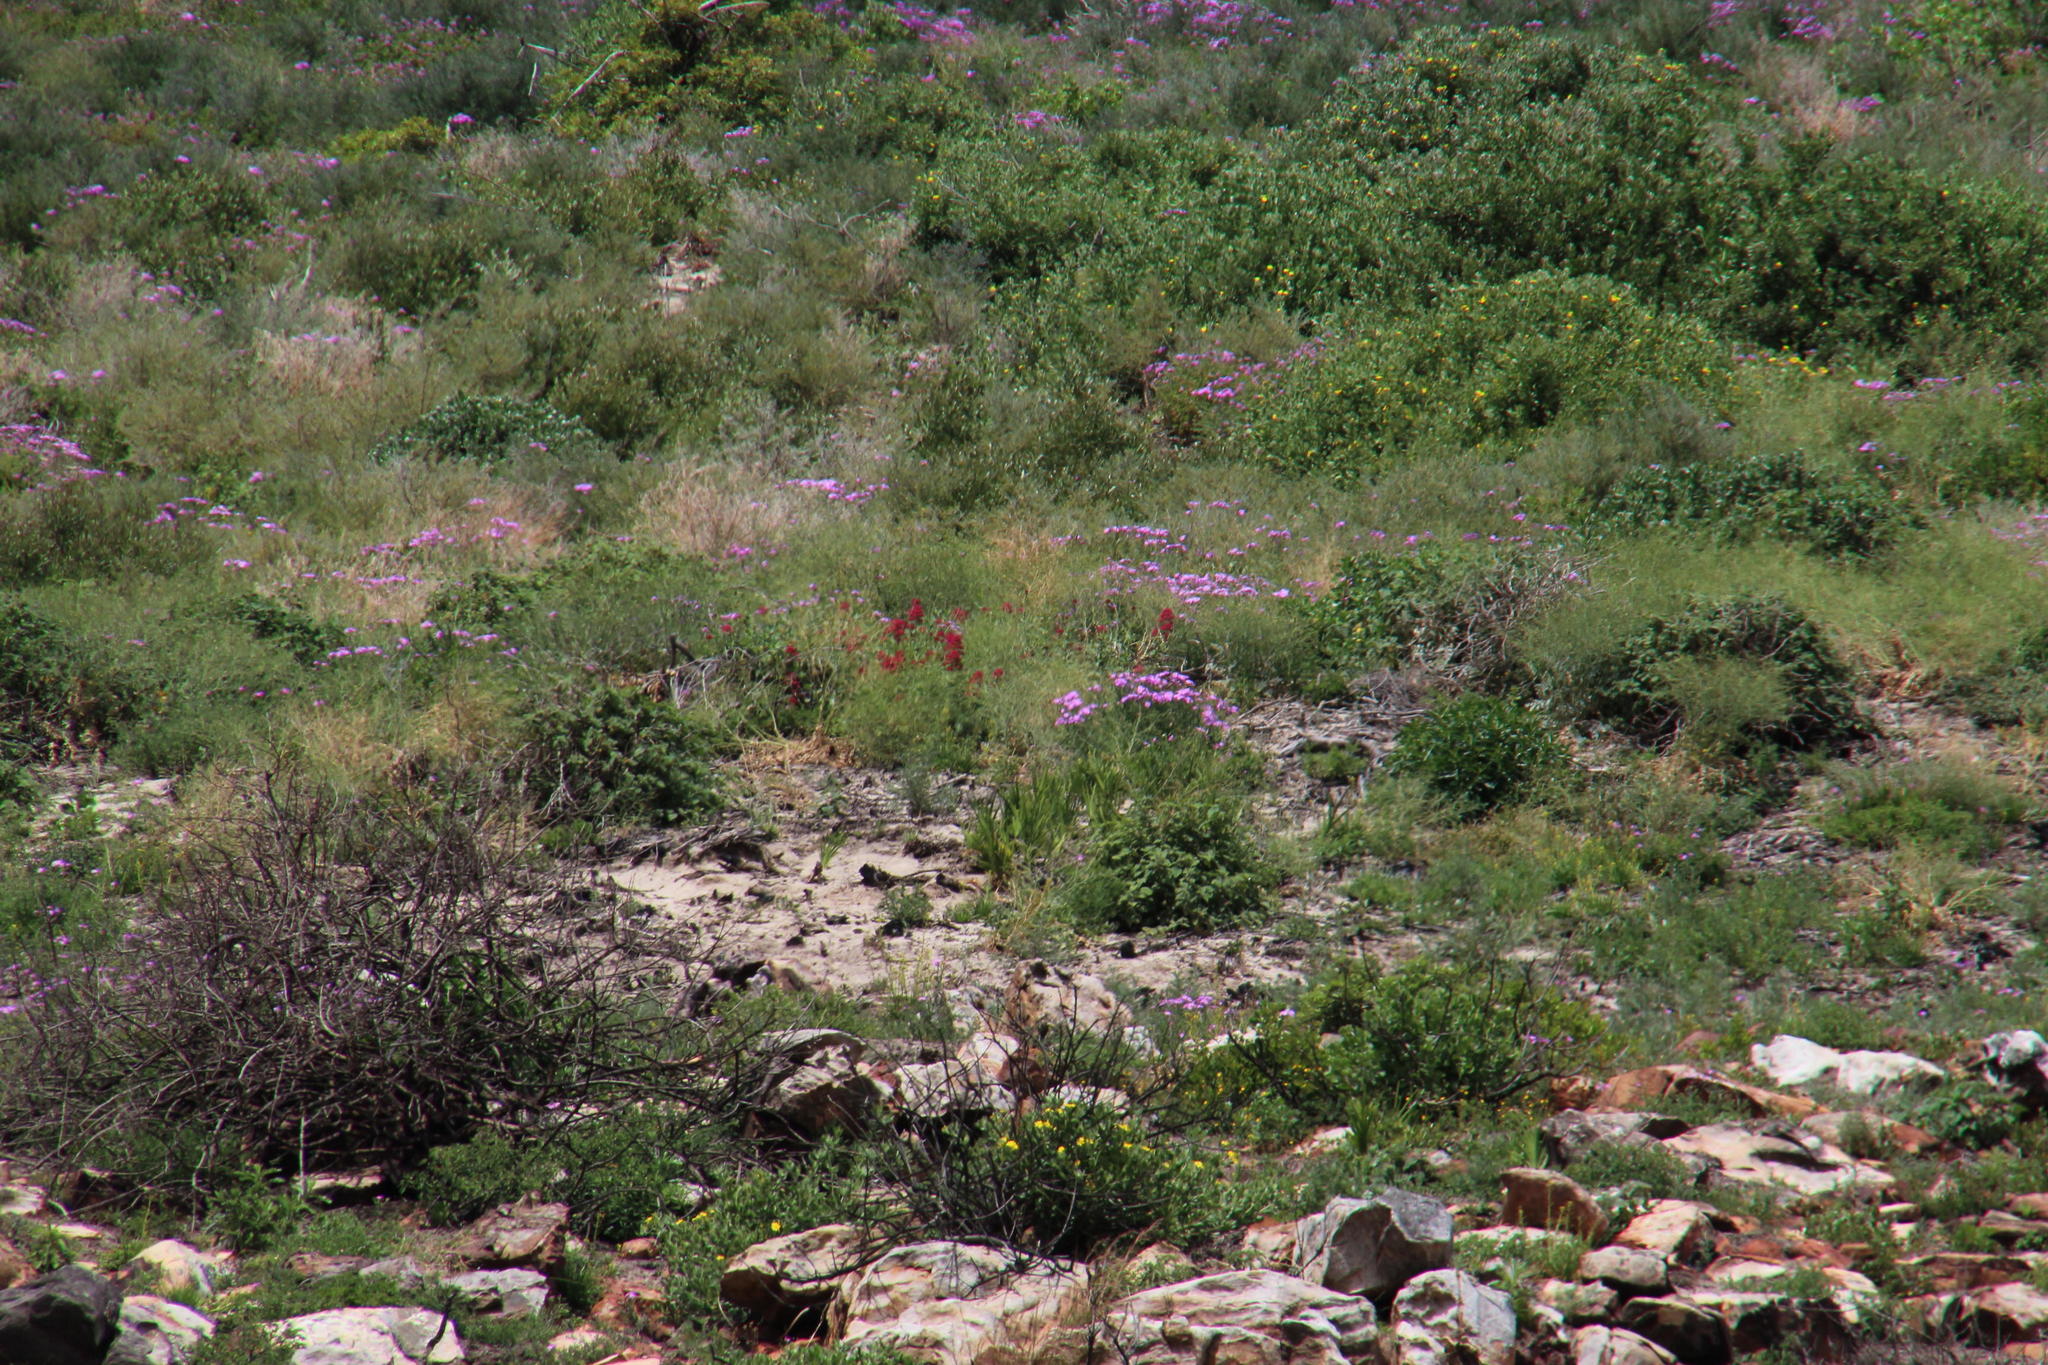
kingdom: Plantae
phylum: Tracheophyta
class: Magnoliopsida
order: Dipsacales
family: Caprifoliaceae
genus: Centranthus
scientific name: Centranthus ruber
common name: Red valerian
